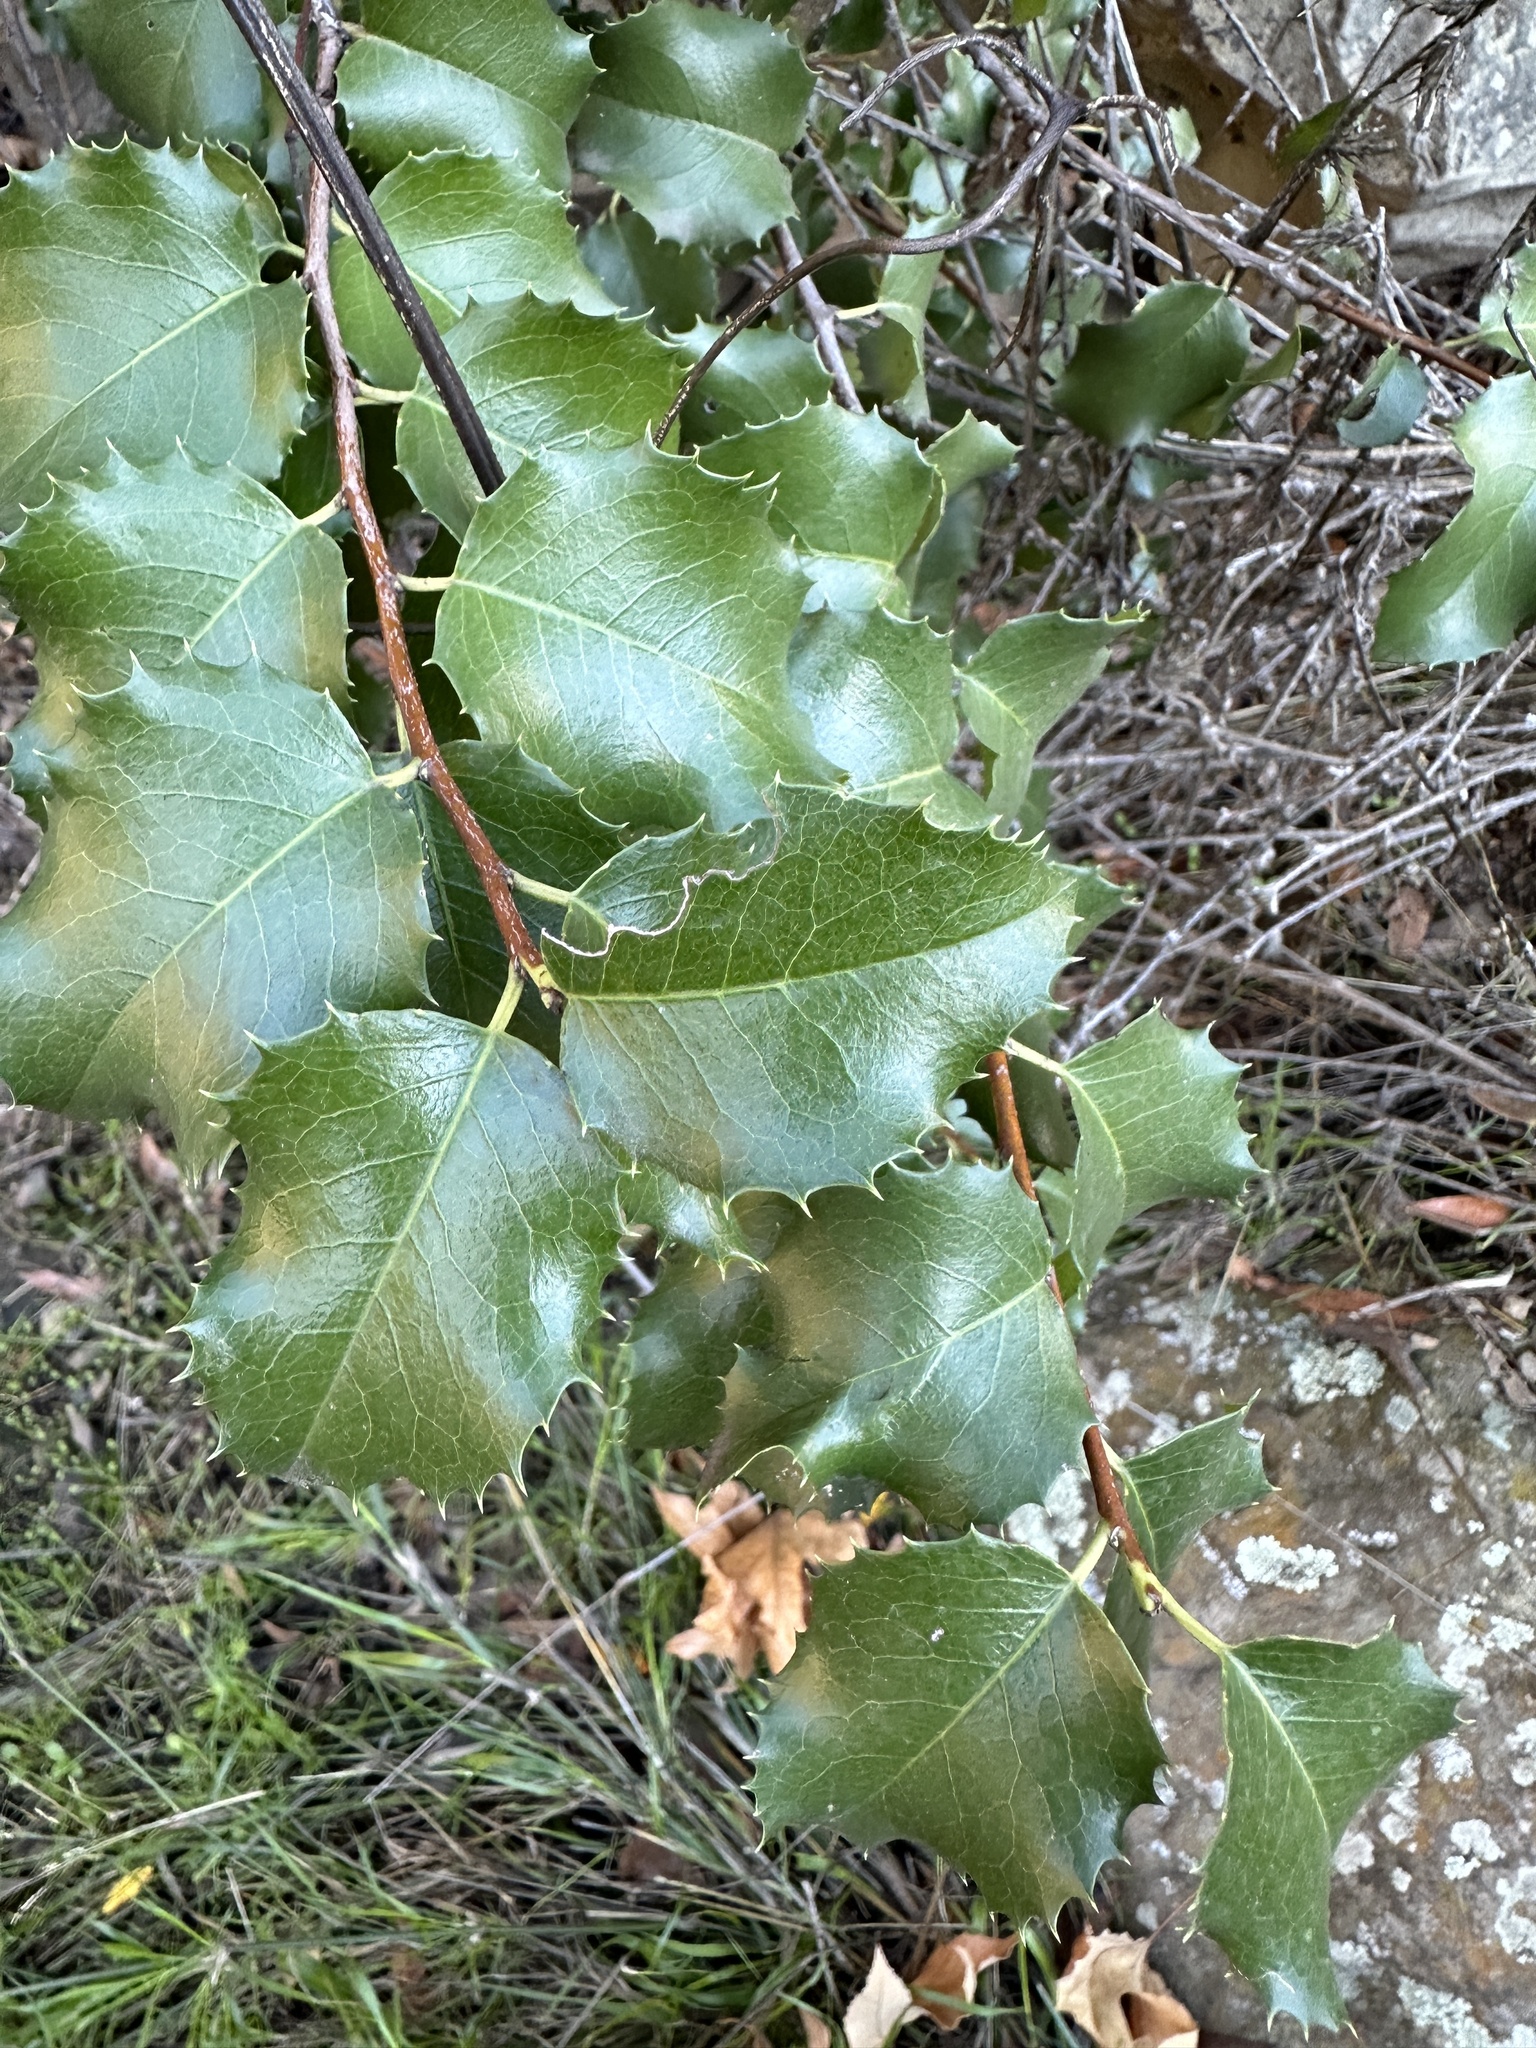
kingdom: Plantae
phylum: Tracheophyta
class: Magnoliopsida
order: Rosales
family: Rosaceae
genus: Prunus
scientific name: Prunus ilicifolia
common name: Hollyleaf cherry
